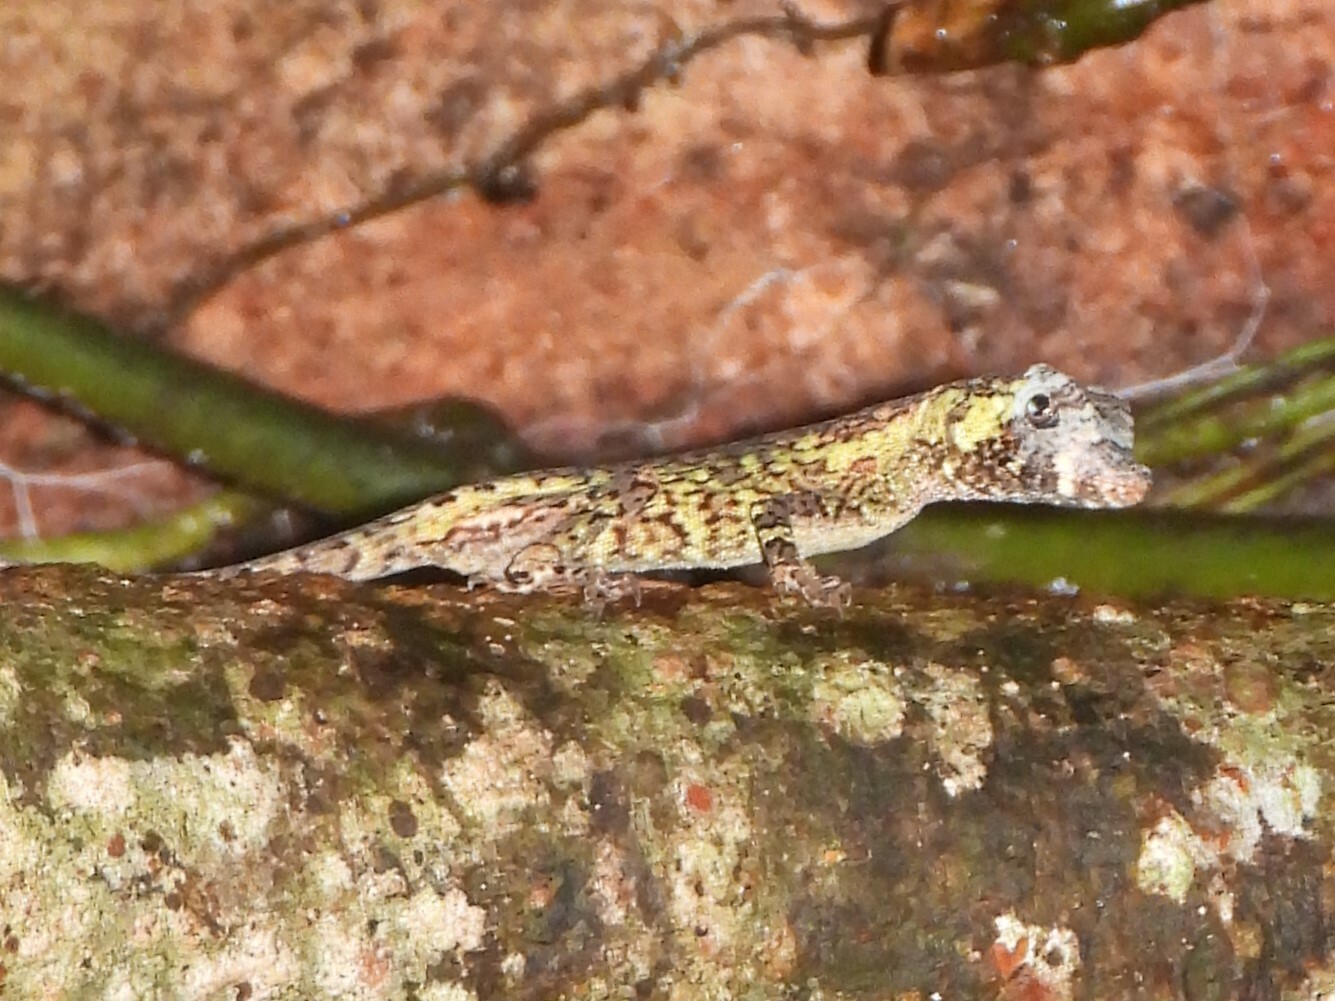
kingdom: Animalia
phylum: Chordata
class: Squamata
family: Dactyloidae
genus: Anolis
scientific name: Anolis capito
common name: Bighead anole
